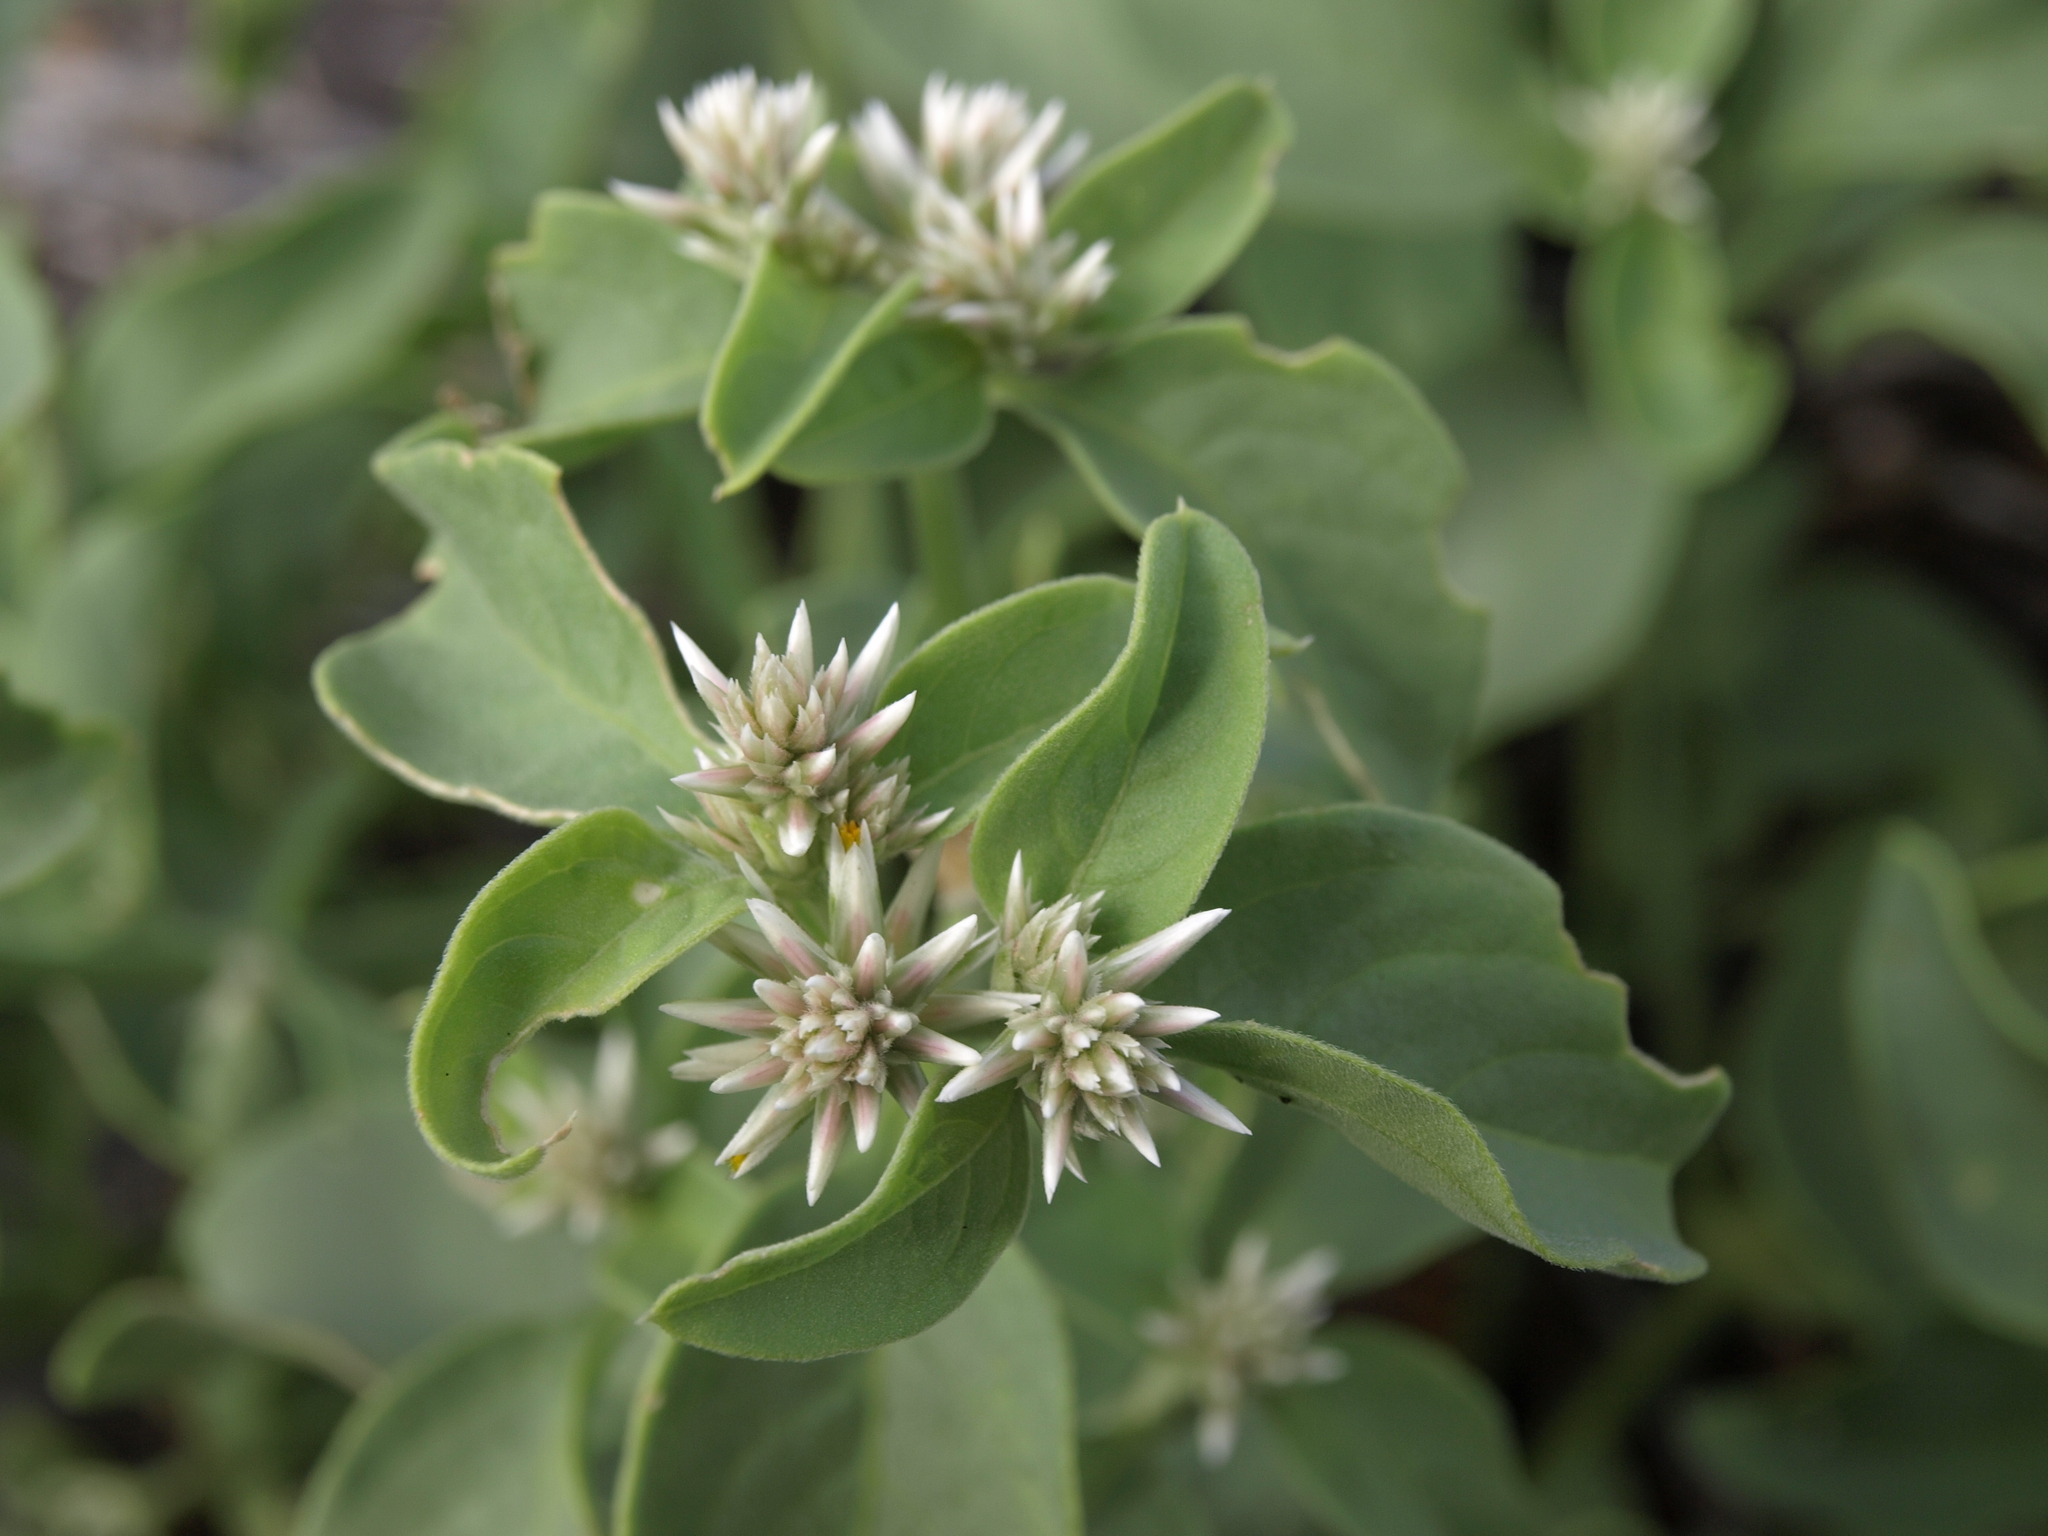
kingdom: Plantae
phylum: Tracheophyta
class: Magnoliopsida
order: Caryophyllales
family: Amaranthaceae
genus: Alternanthera
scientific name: Alternanthera echinocephala
